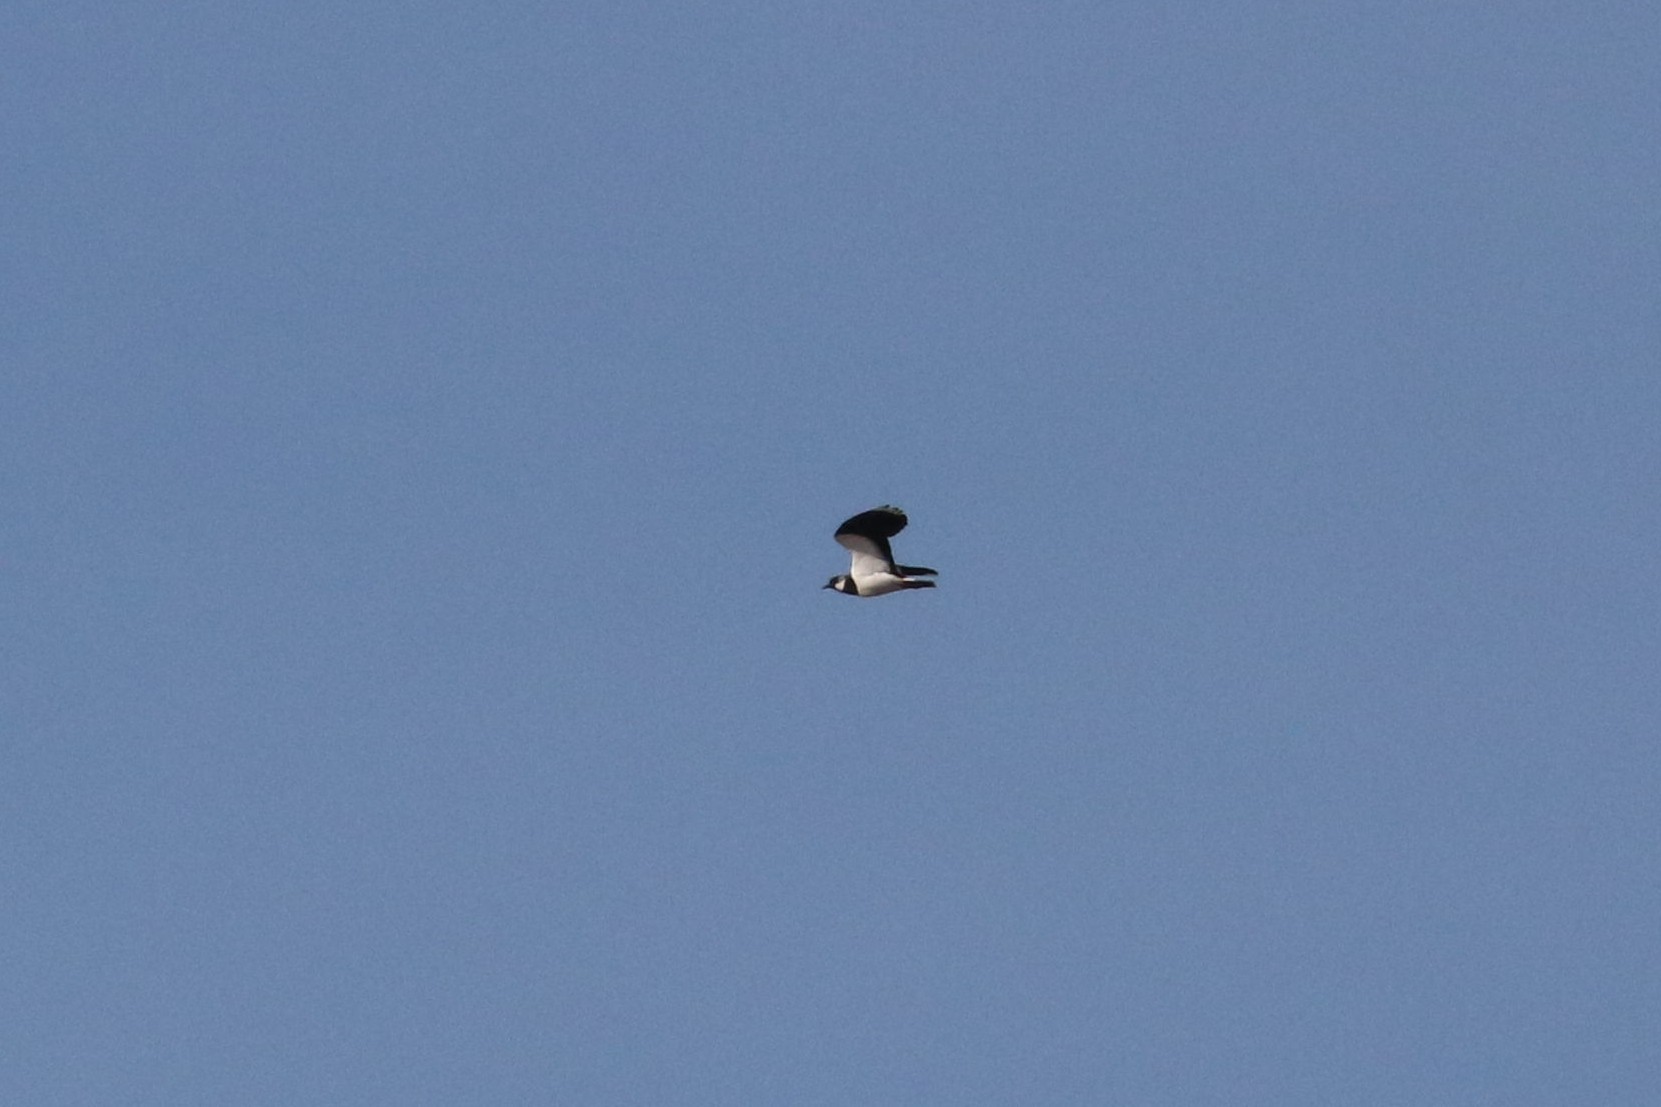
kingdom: Animalia
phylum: Chordata
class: Aves
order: Charadriiformes
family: Charadriidae
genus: Vanellus
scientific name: Vanellus vanellus
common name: Northern lapwing
